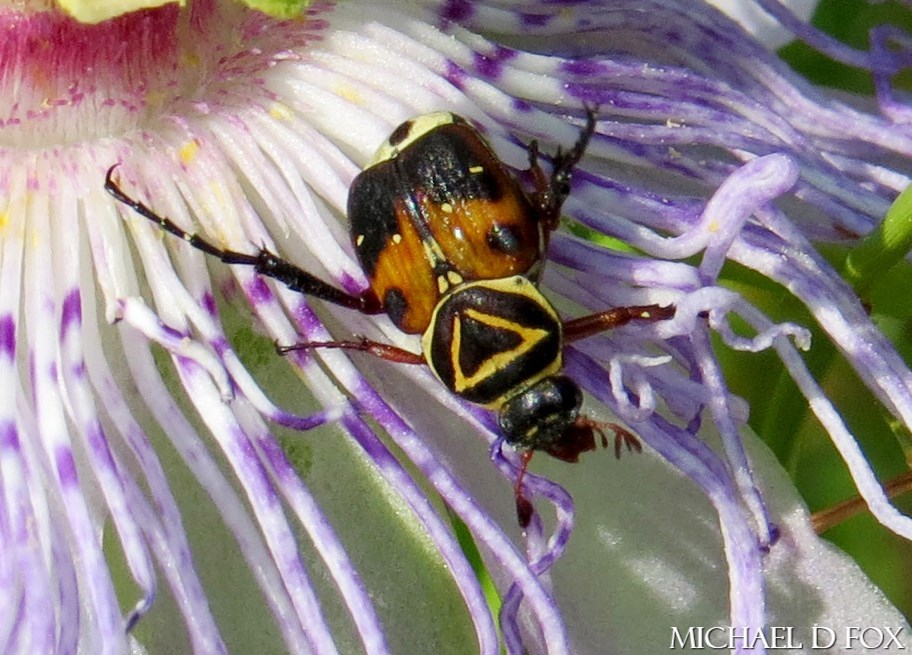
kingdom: Animalia
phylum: Arthropoda
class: Insecta
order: Coleoptera
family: Scarabaeidae
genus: Trigonopeltastes
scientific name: Trigonopeltastes delta
